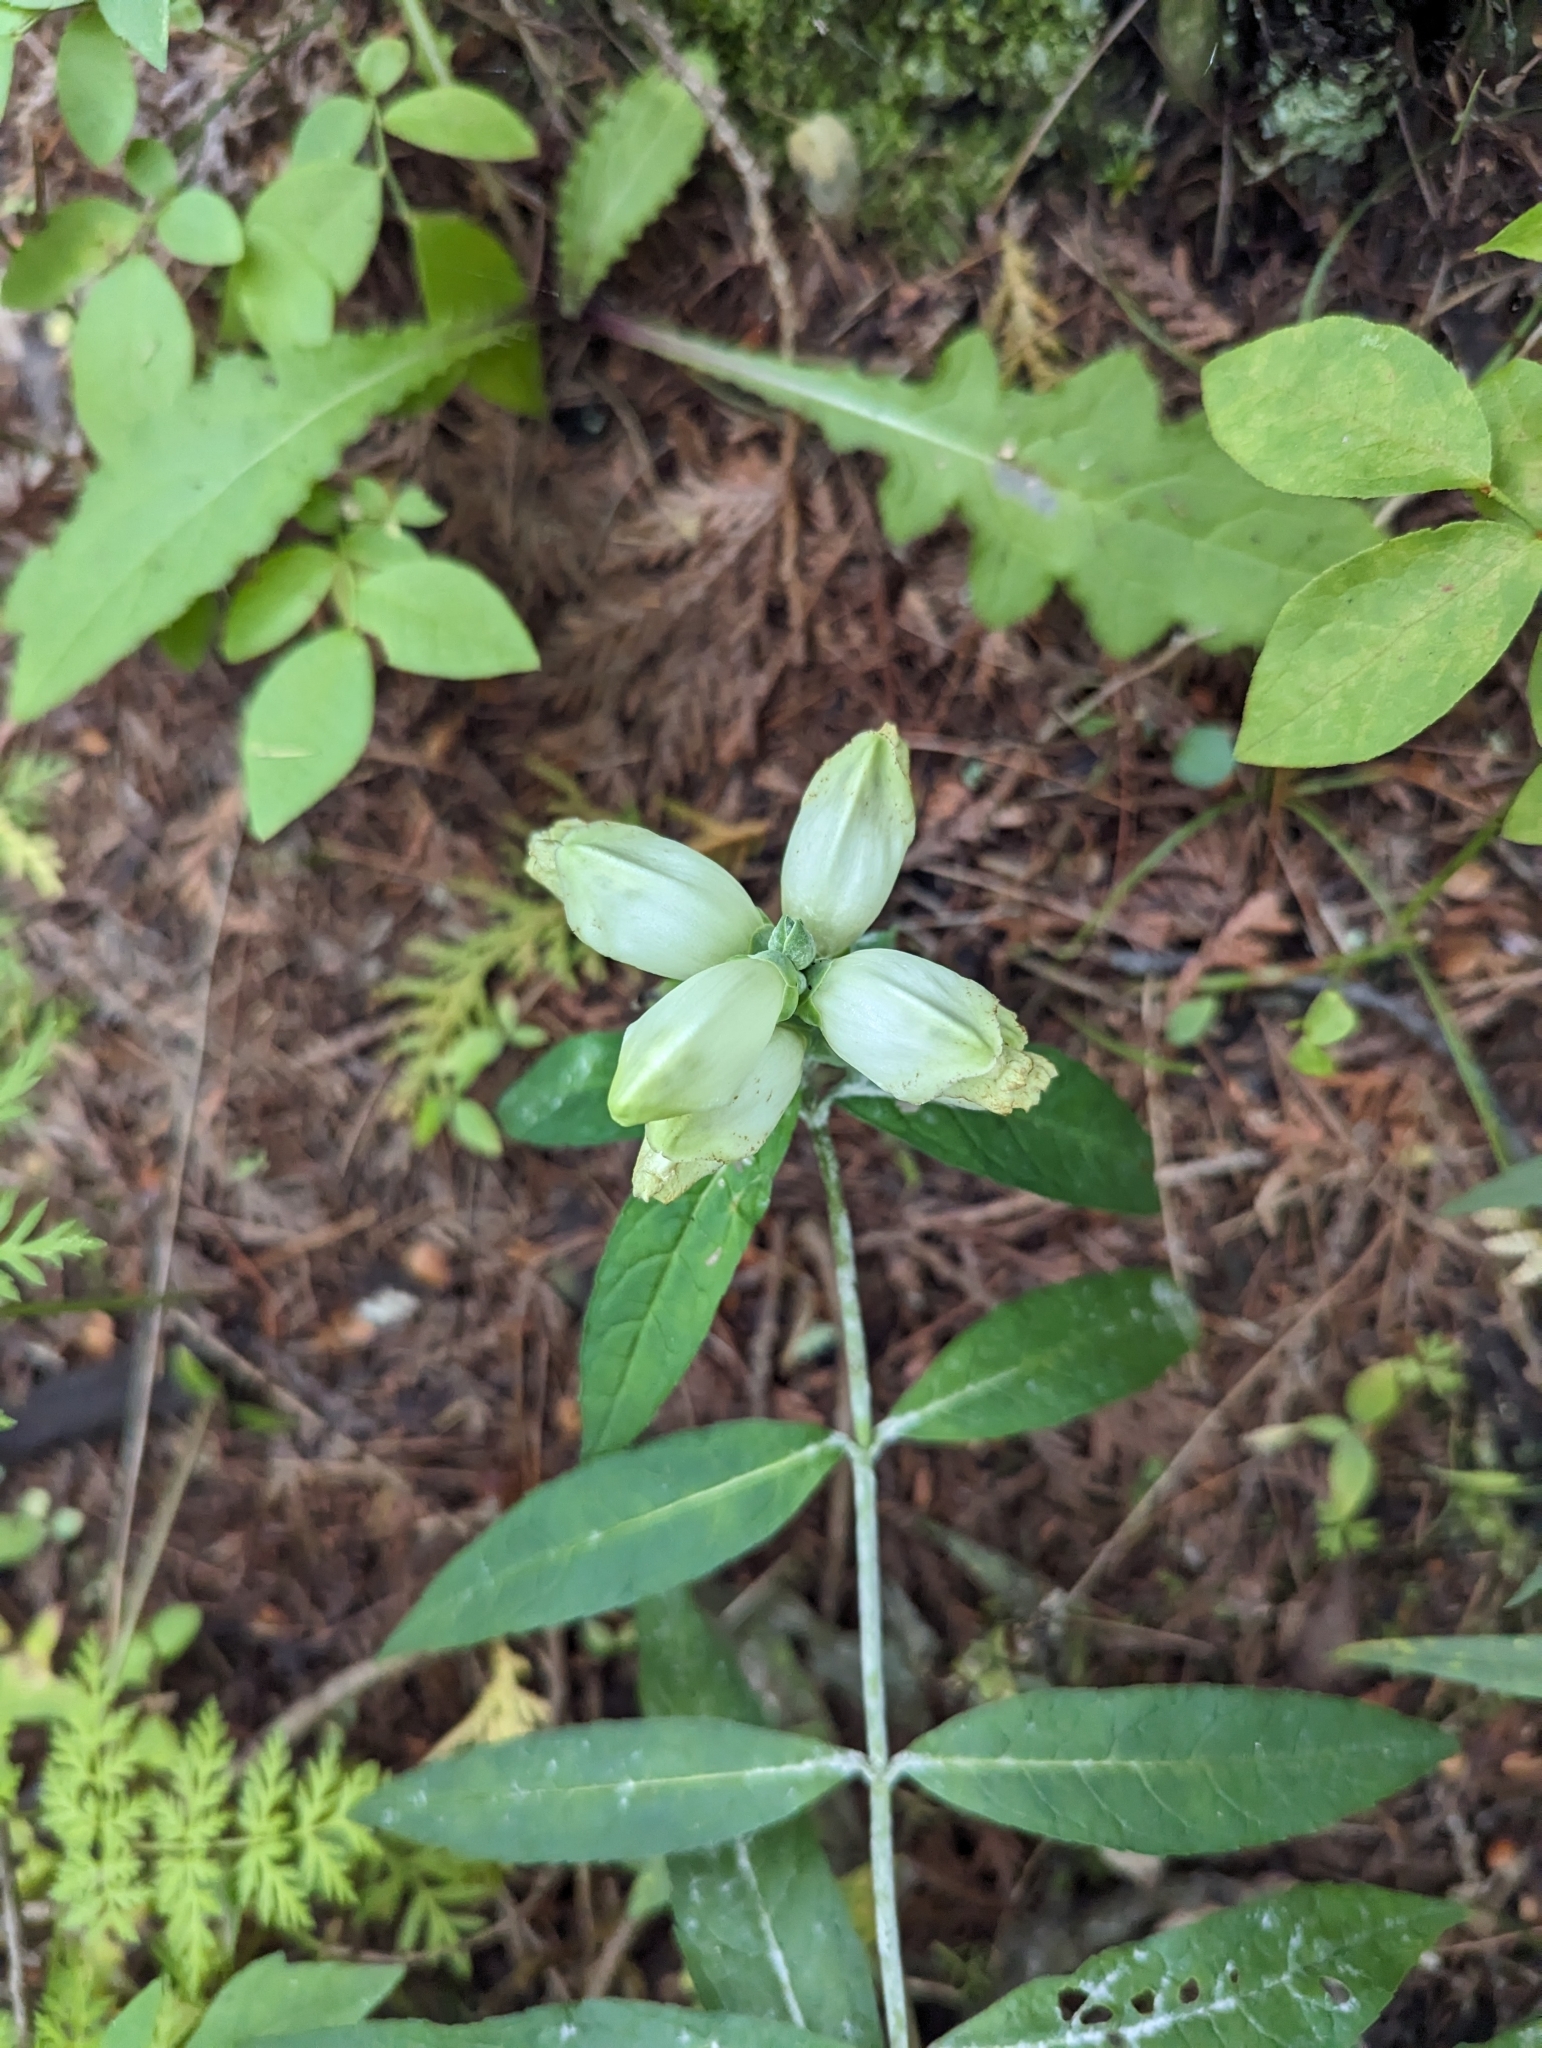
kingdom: Plantae
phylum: Tracheophyta
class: Magnoliopsida
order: Lamiales
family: Plantaginaceae
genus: Chelone
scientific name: Chelone glabra
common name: Snakehead
